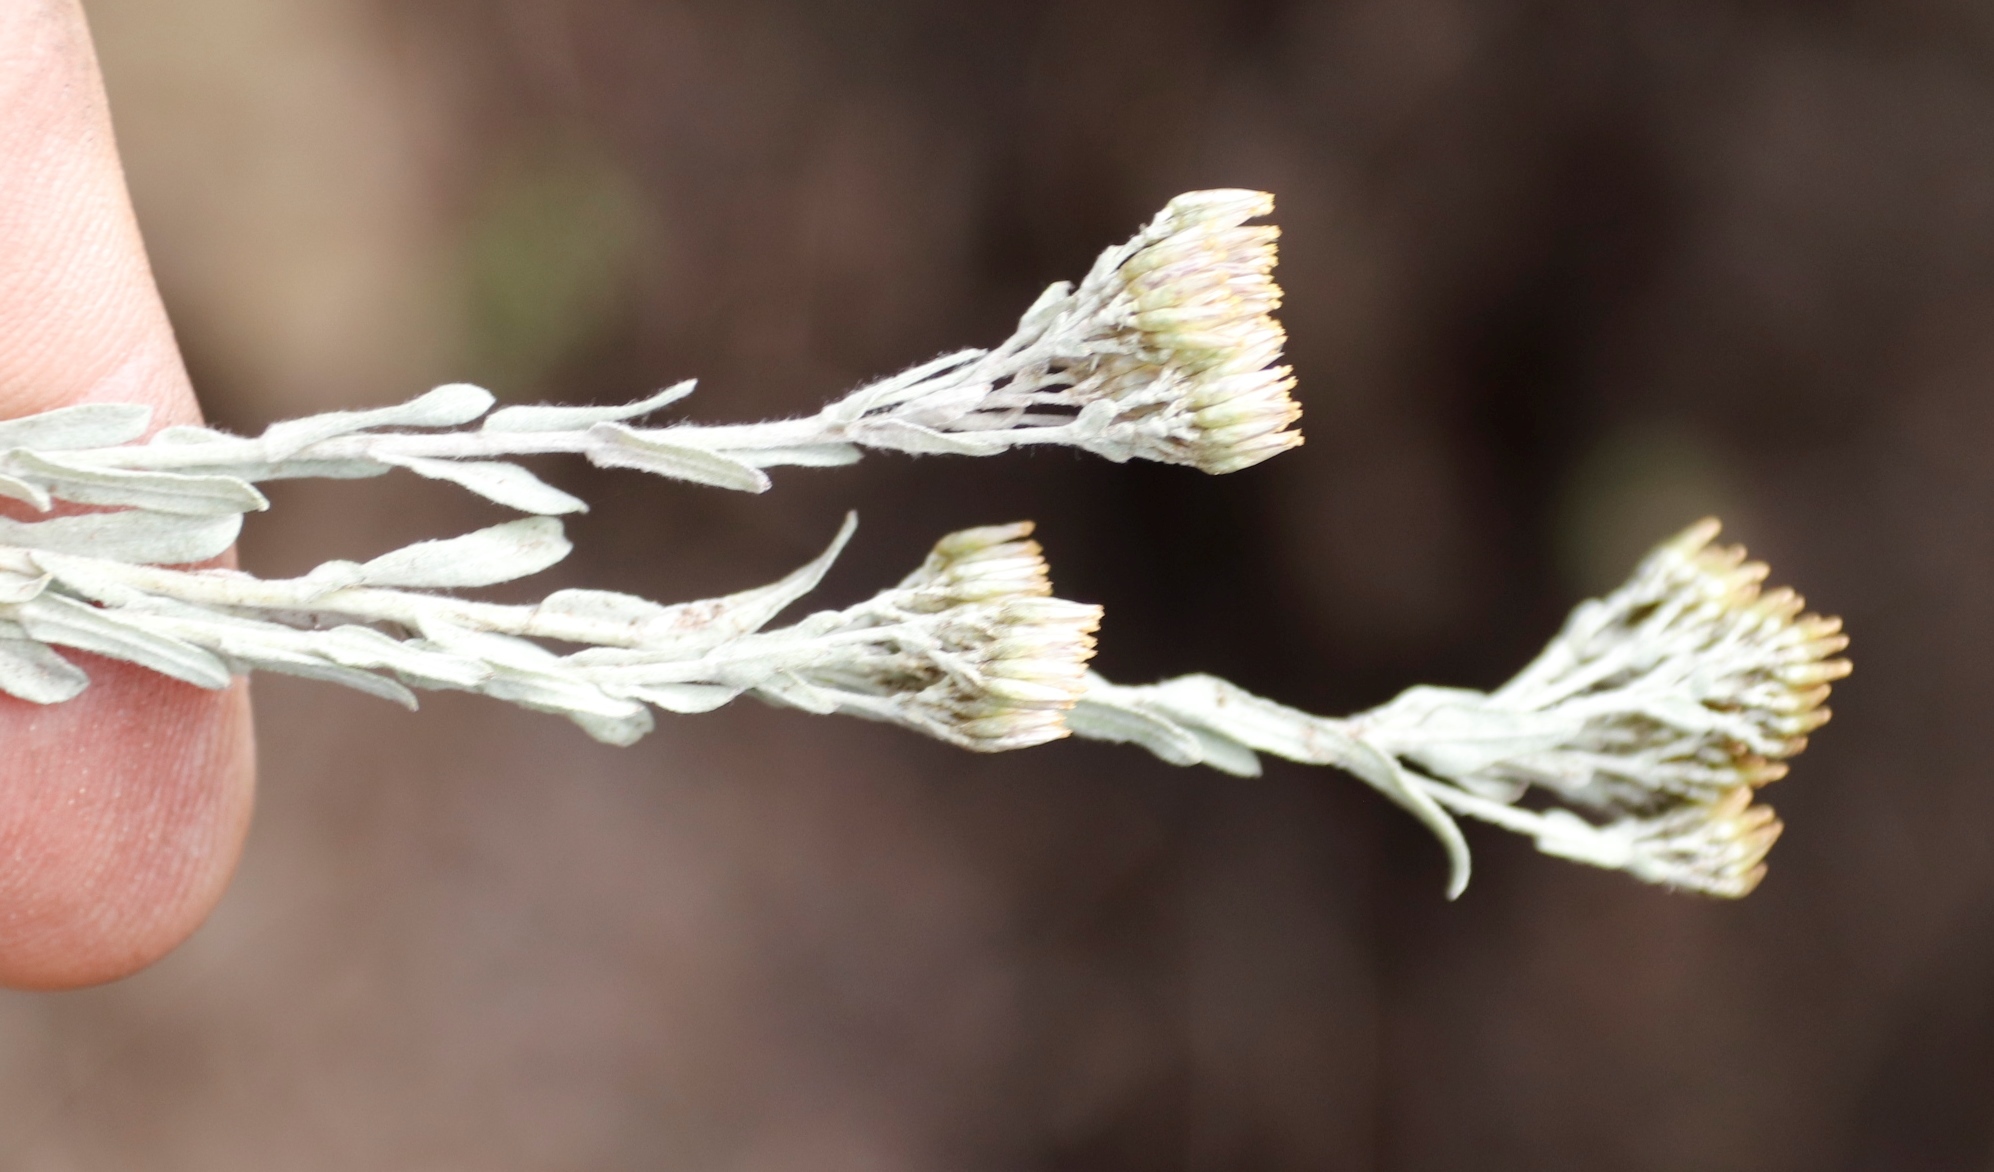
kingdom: Plantae
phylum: Tracheophyta
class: Magnoliopsida
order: Asterales
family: Asteraceae
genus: Helichrysum
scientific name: Helichrysum callicomum
